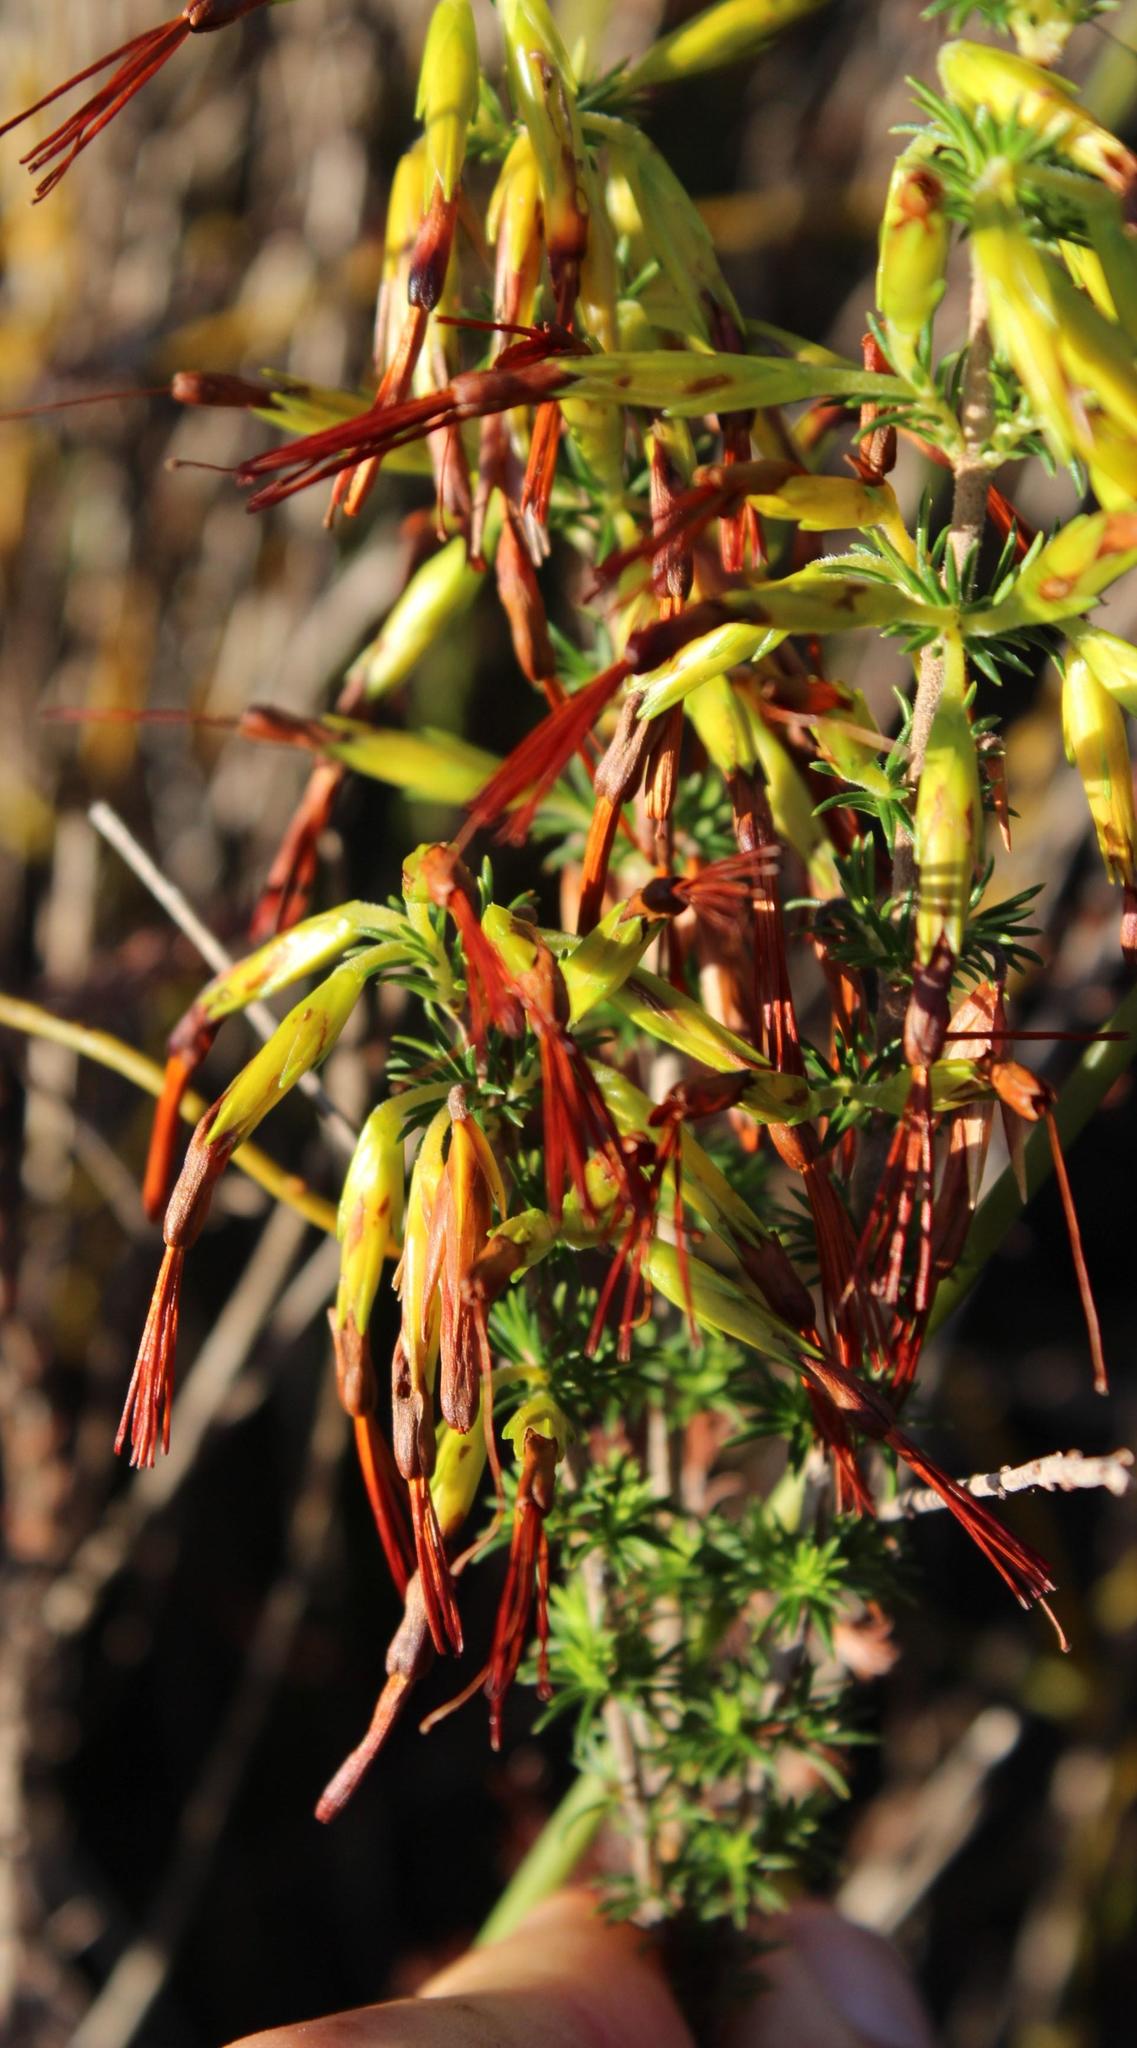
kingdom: Plantae
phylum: Tracheophyta
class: Magnoliopsida
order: Ericales
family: Ericaceae
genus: Erica
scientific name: Erica coccinea
